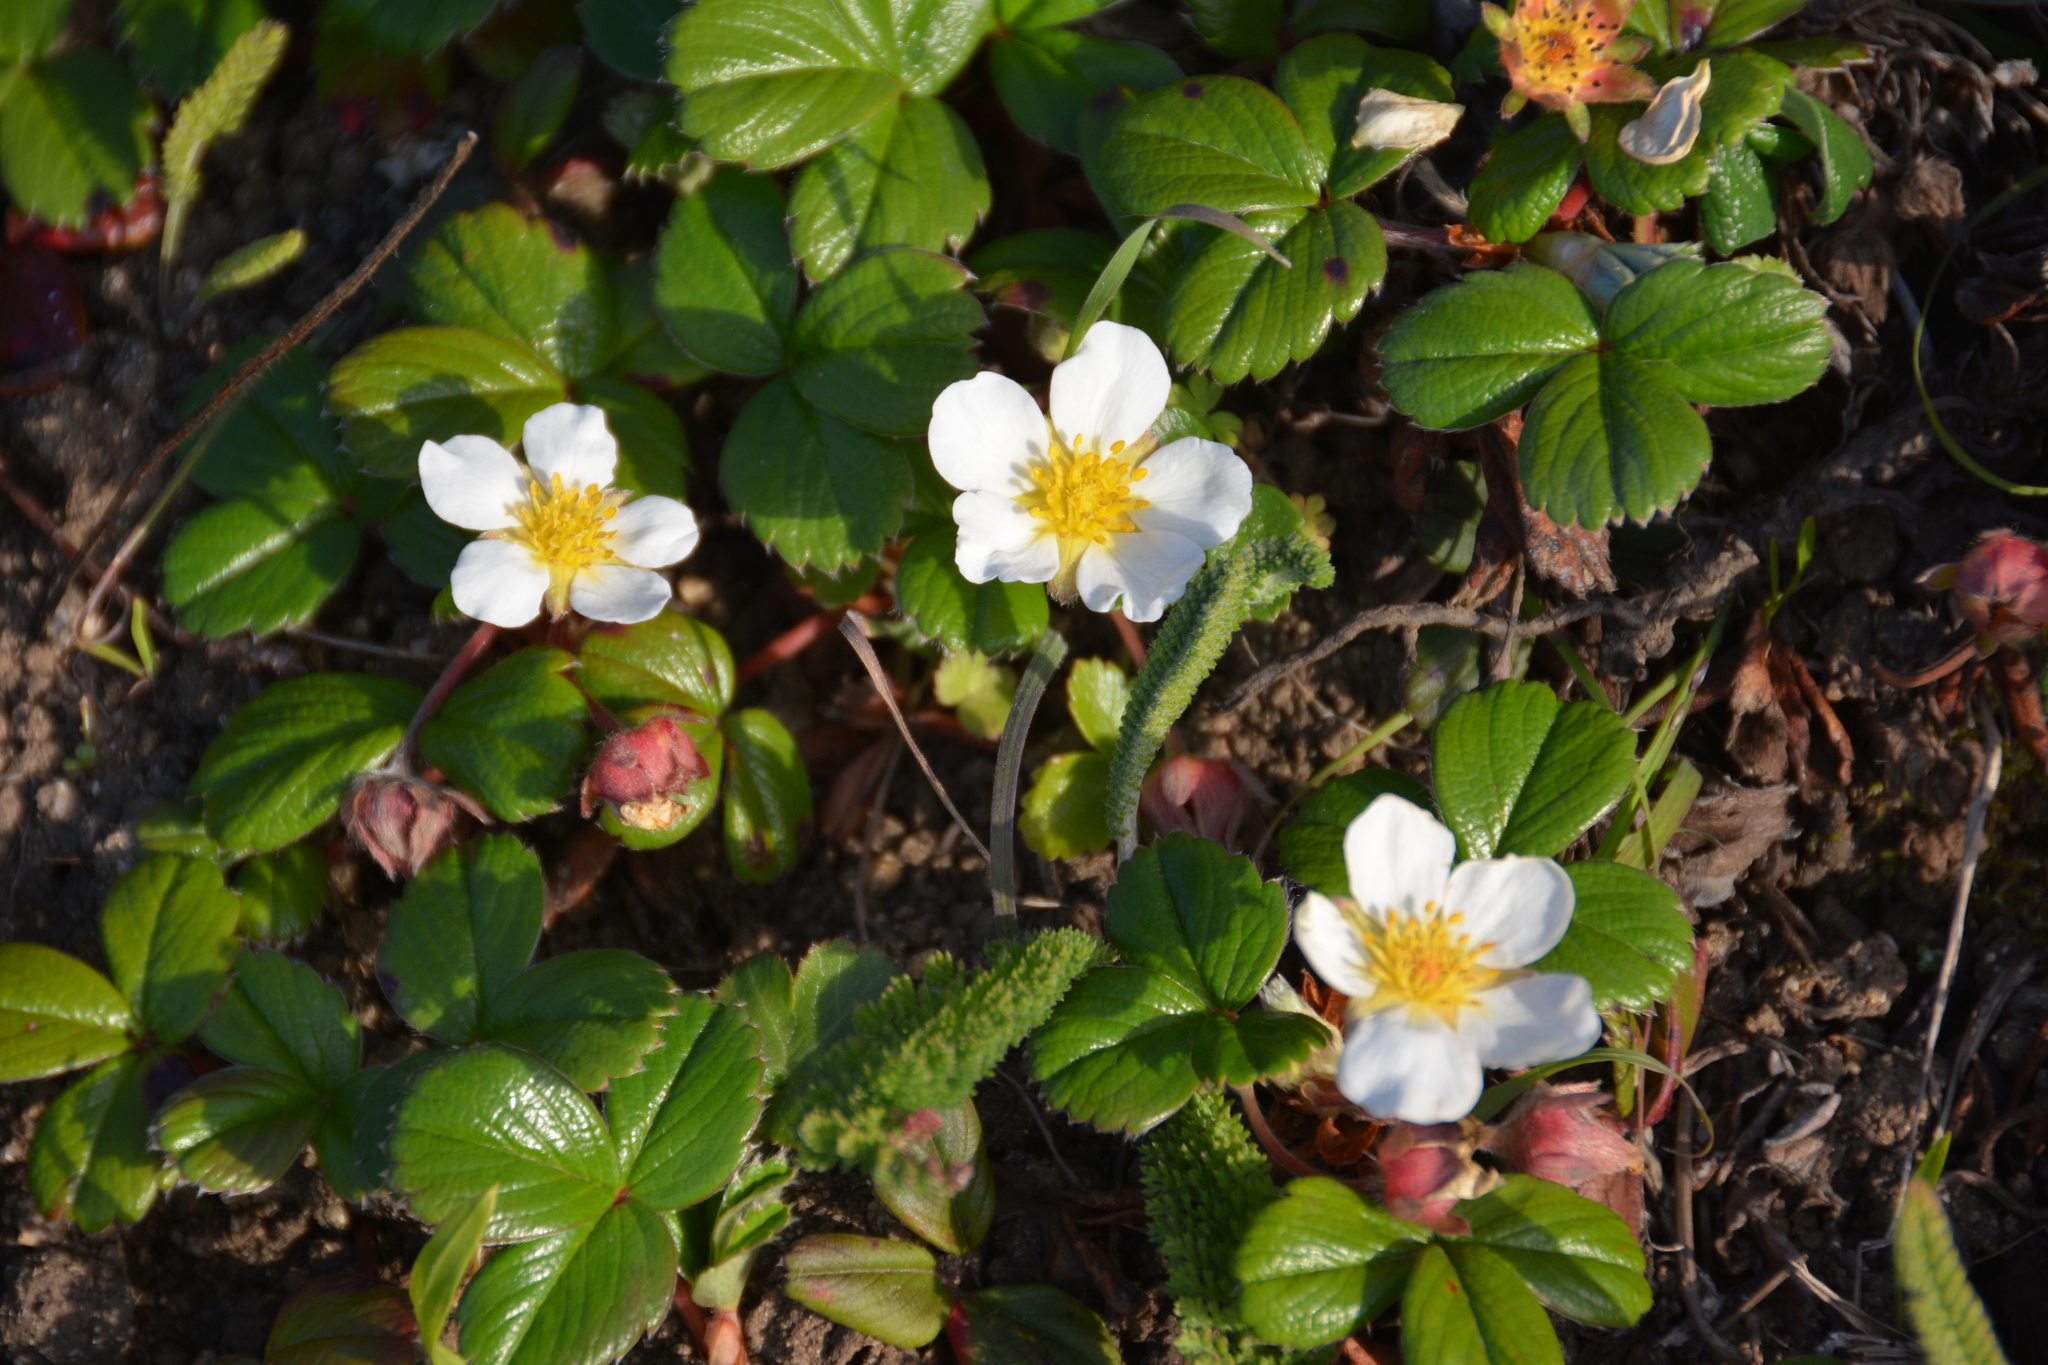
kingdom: Plantae
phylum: Tracheophyta
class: Magnoliopsida
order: Rosales
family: Rosaceae
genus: Fragaria
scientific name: Fragaria chiloensis
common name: Beach strawberry
